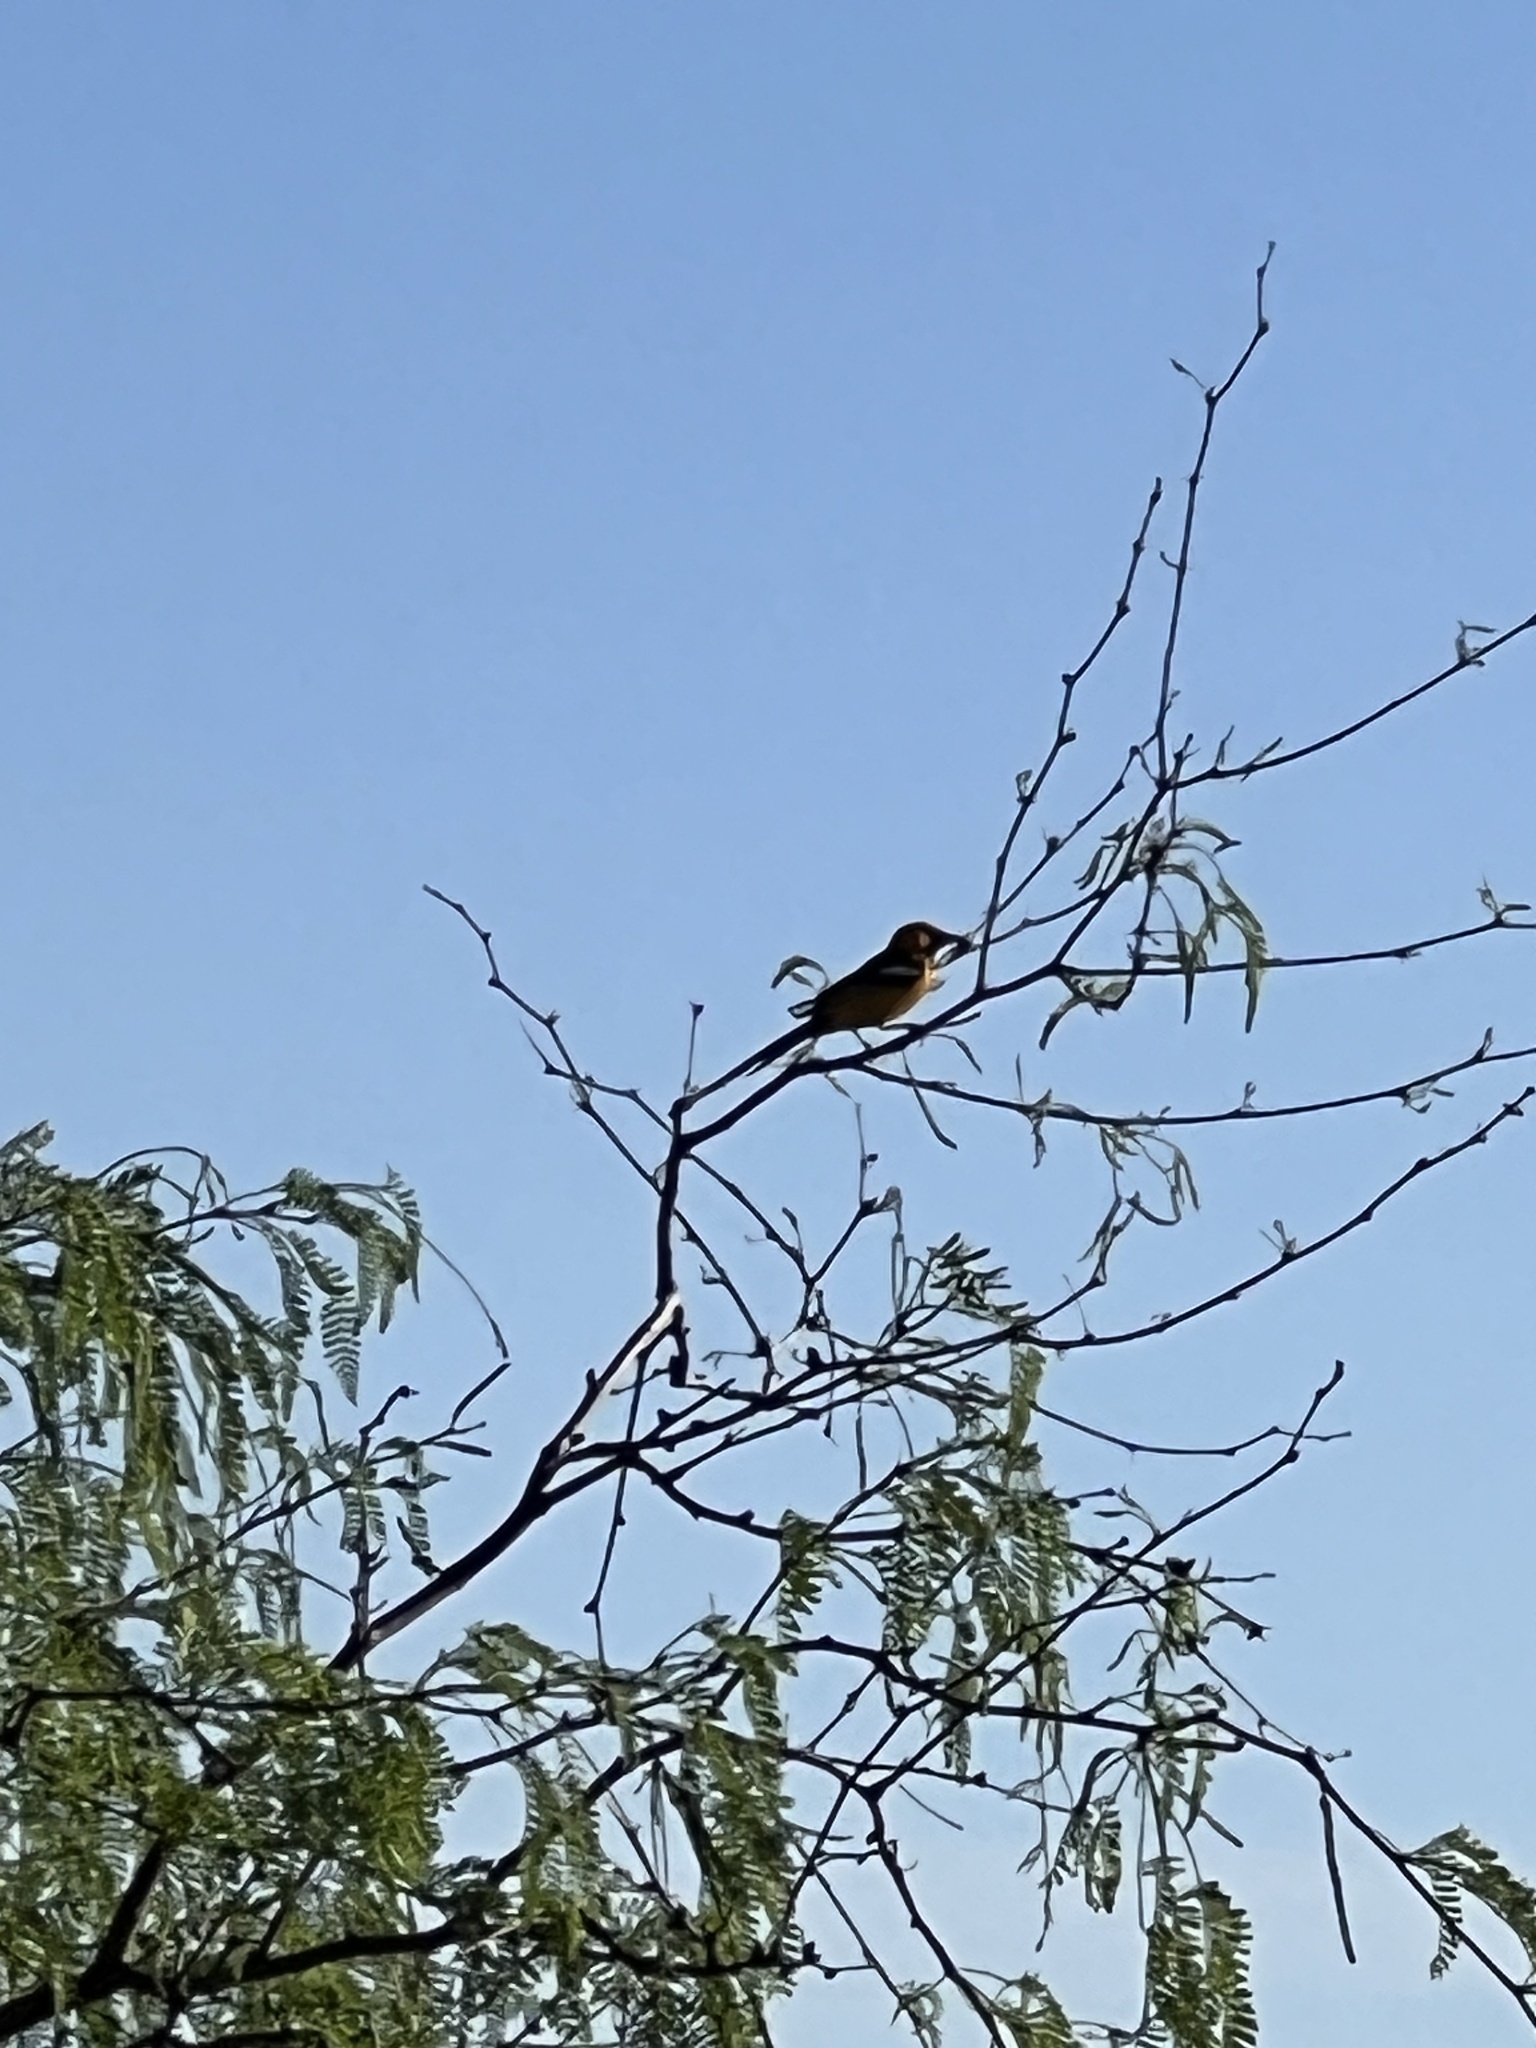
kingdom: Animalia
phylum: Chordata
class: Aves
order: Passeriformes
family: Icteridae
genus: Icterus
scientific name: Icterus cucullatus
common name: Hooded oriole
